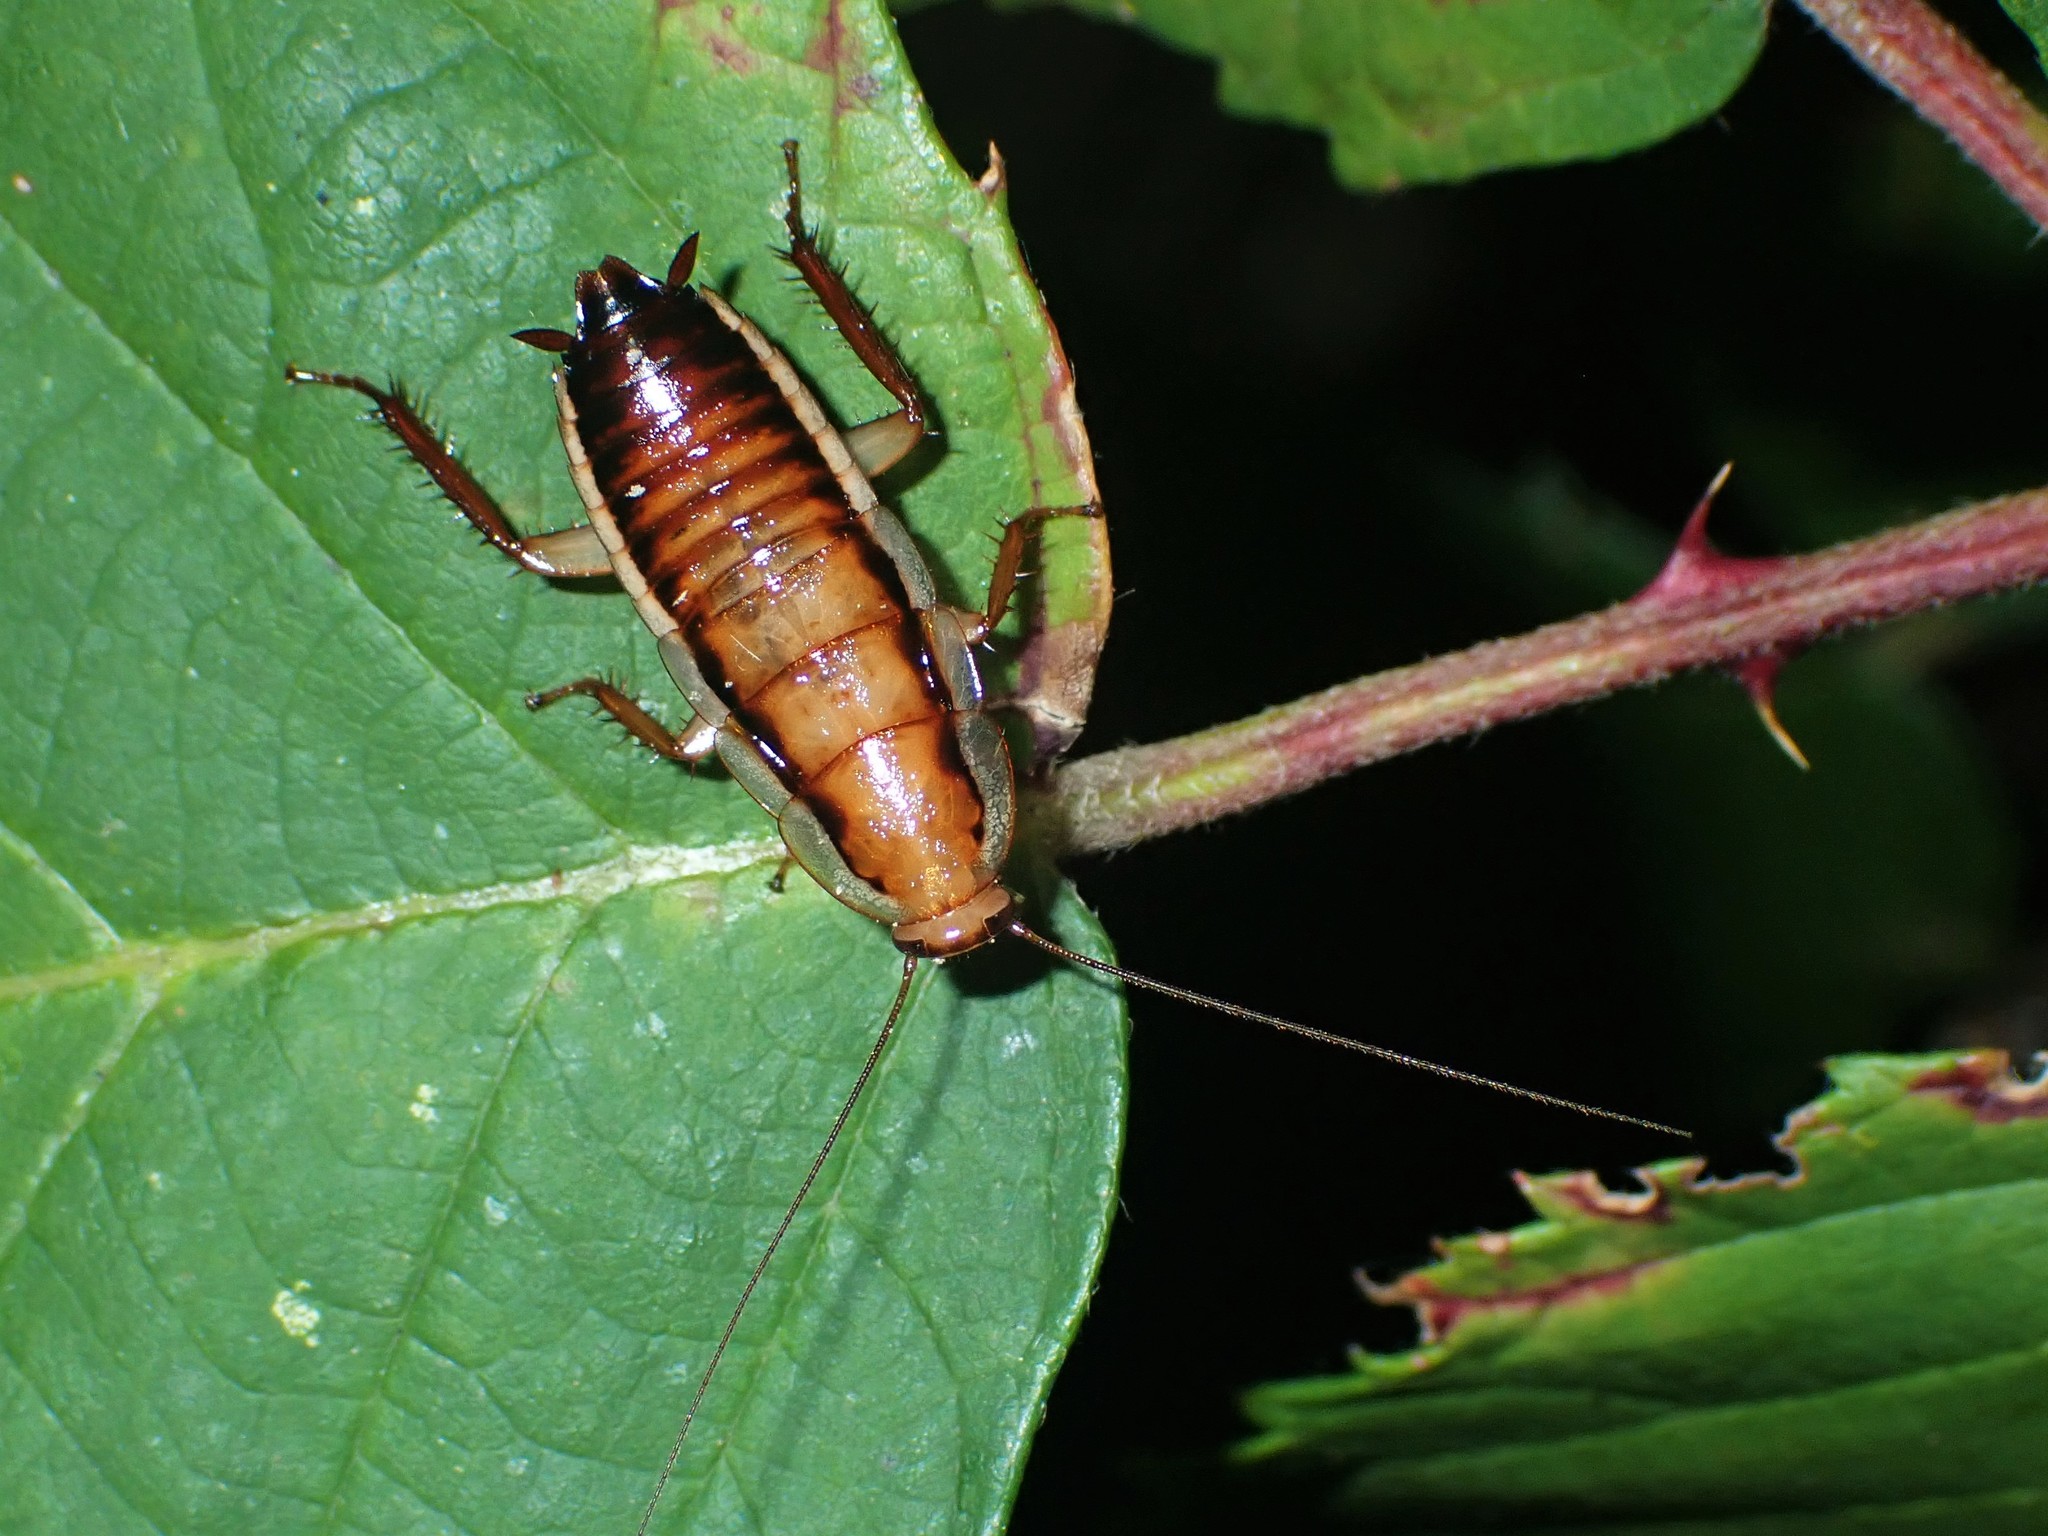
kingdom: Animalia
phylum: Arthropoda
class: Insecta
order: Blattodea
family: Blattidae
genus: Drymaplaneta
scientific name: Drymaplaneta heydeniana
